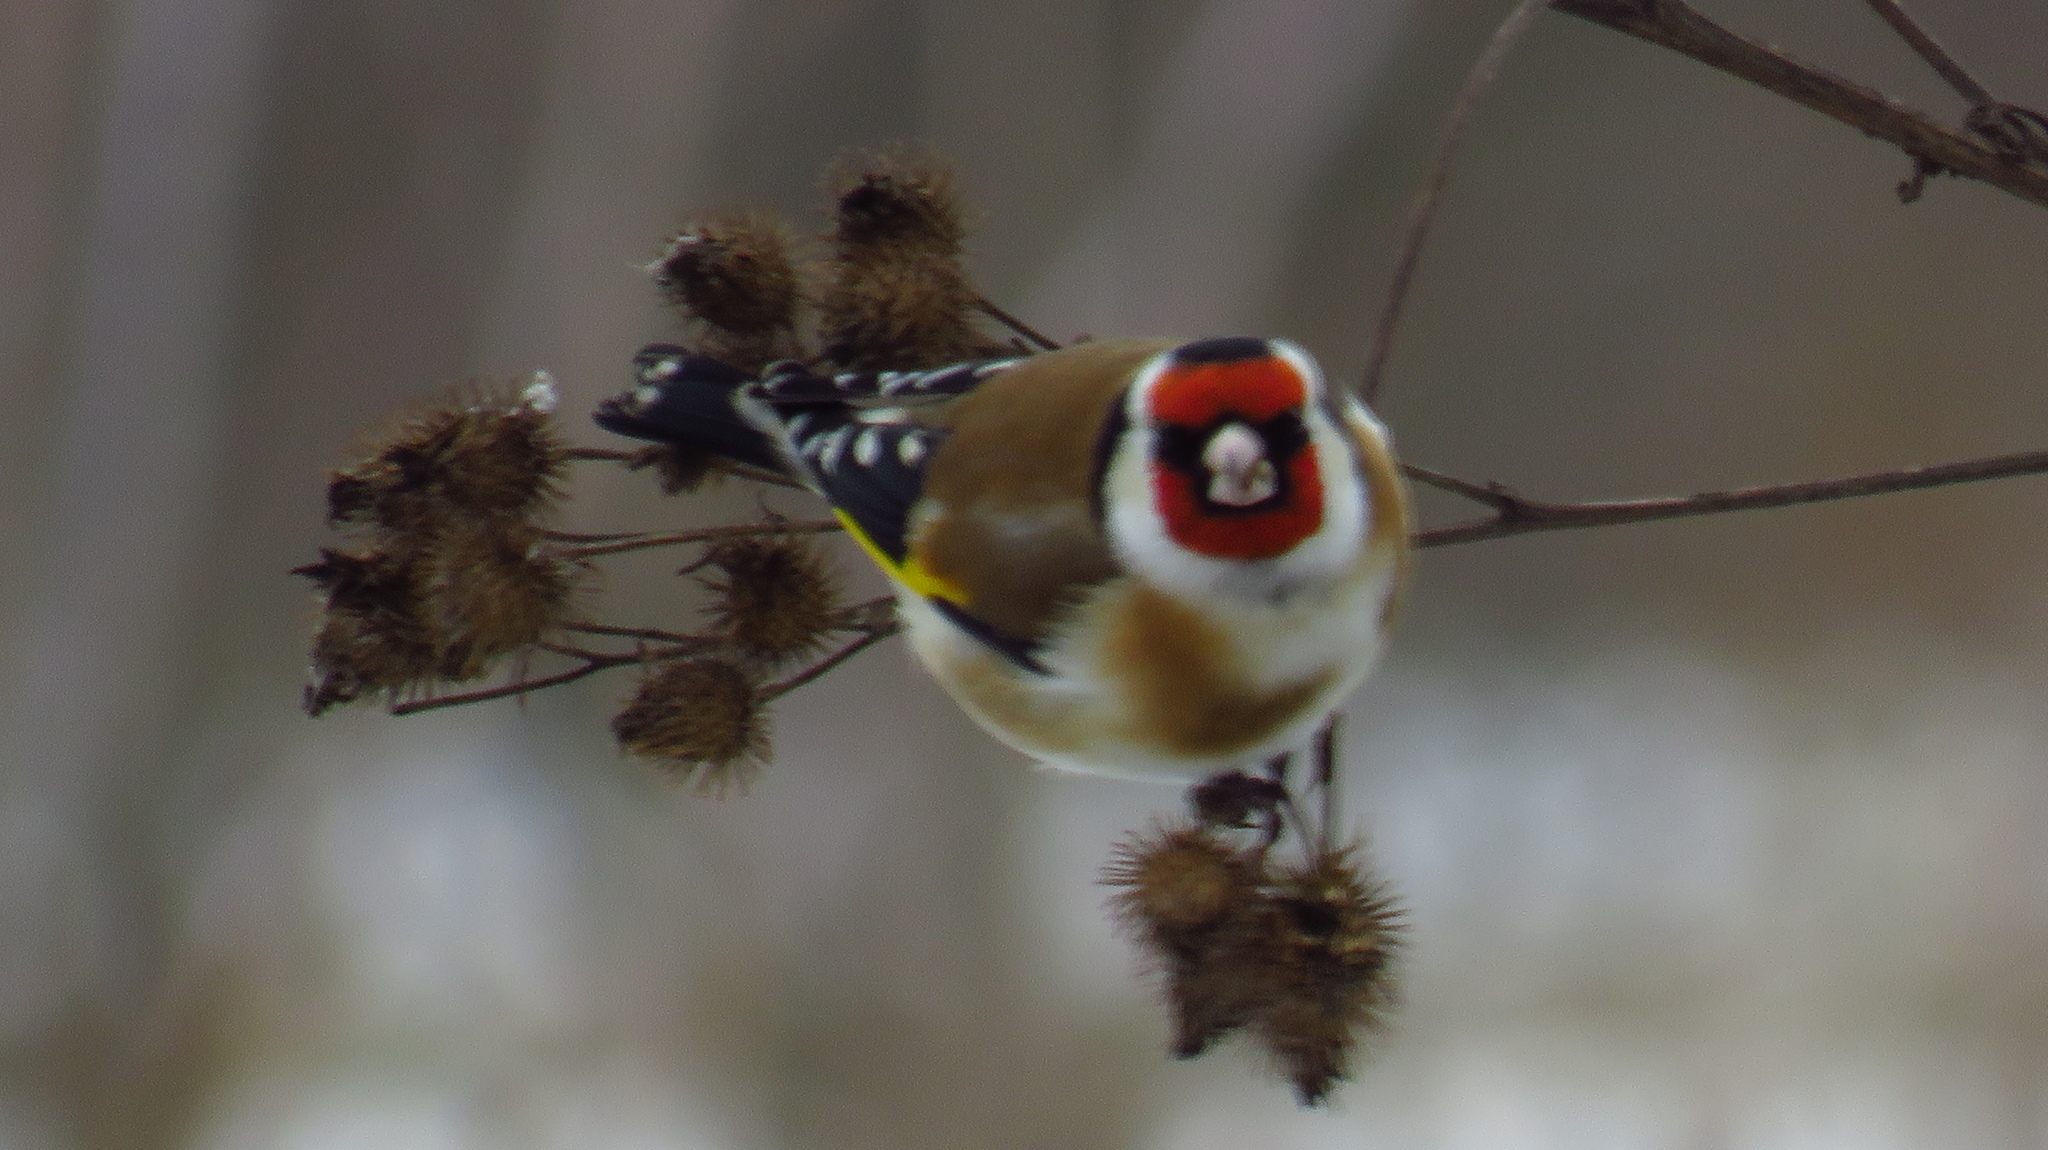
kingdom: Animalia
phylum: Chordata
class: Aves
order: Passeriformes
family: Fringillidae
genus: Carduelis
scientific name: Carduelis carduelis
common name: European goldfinch
